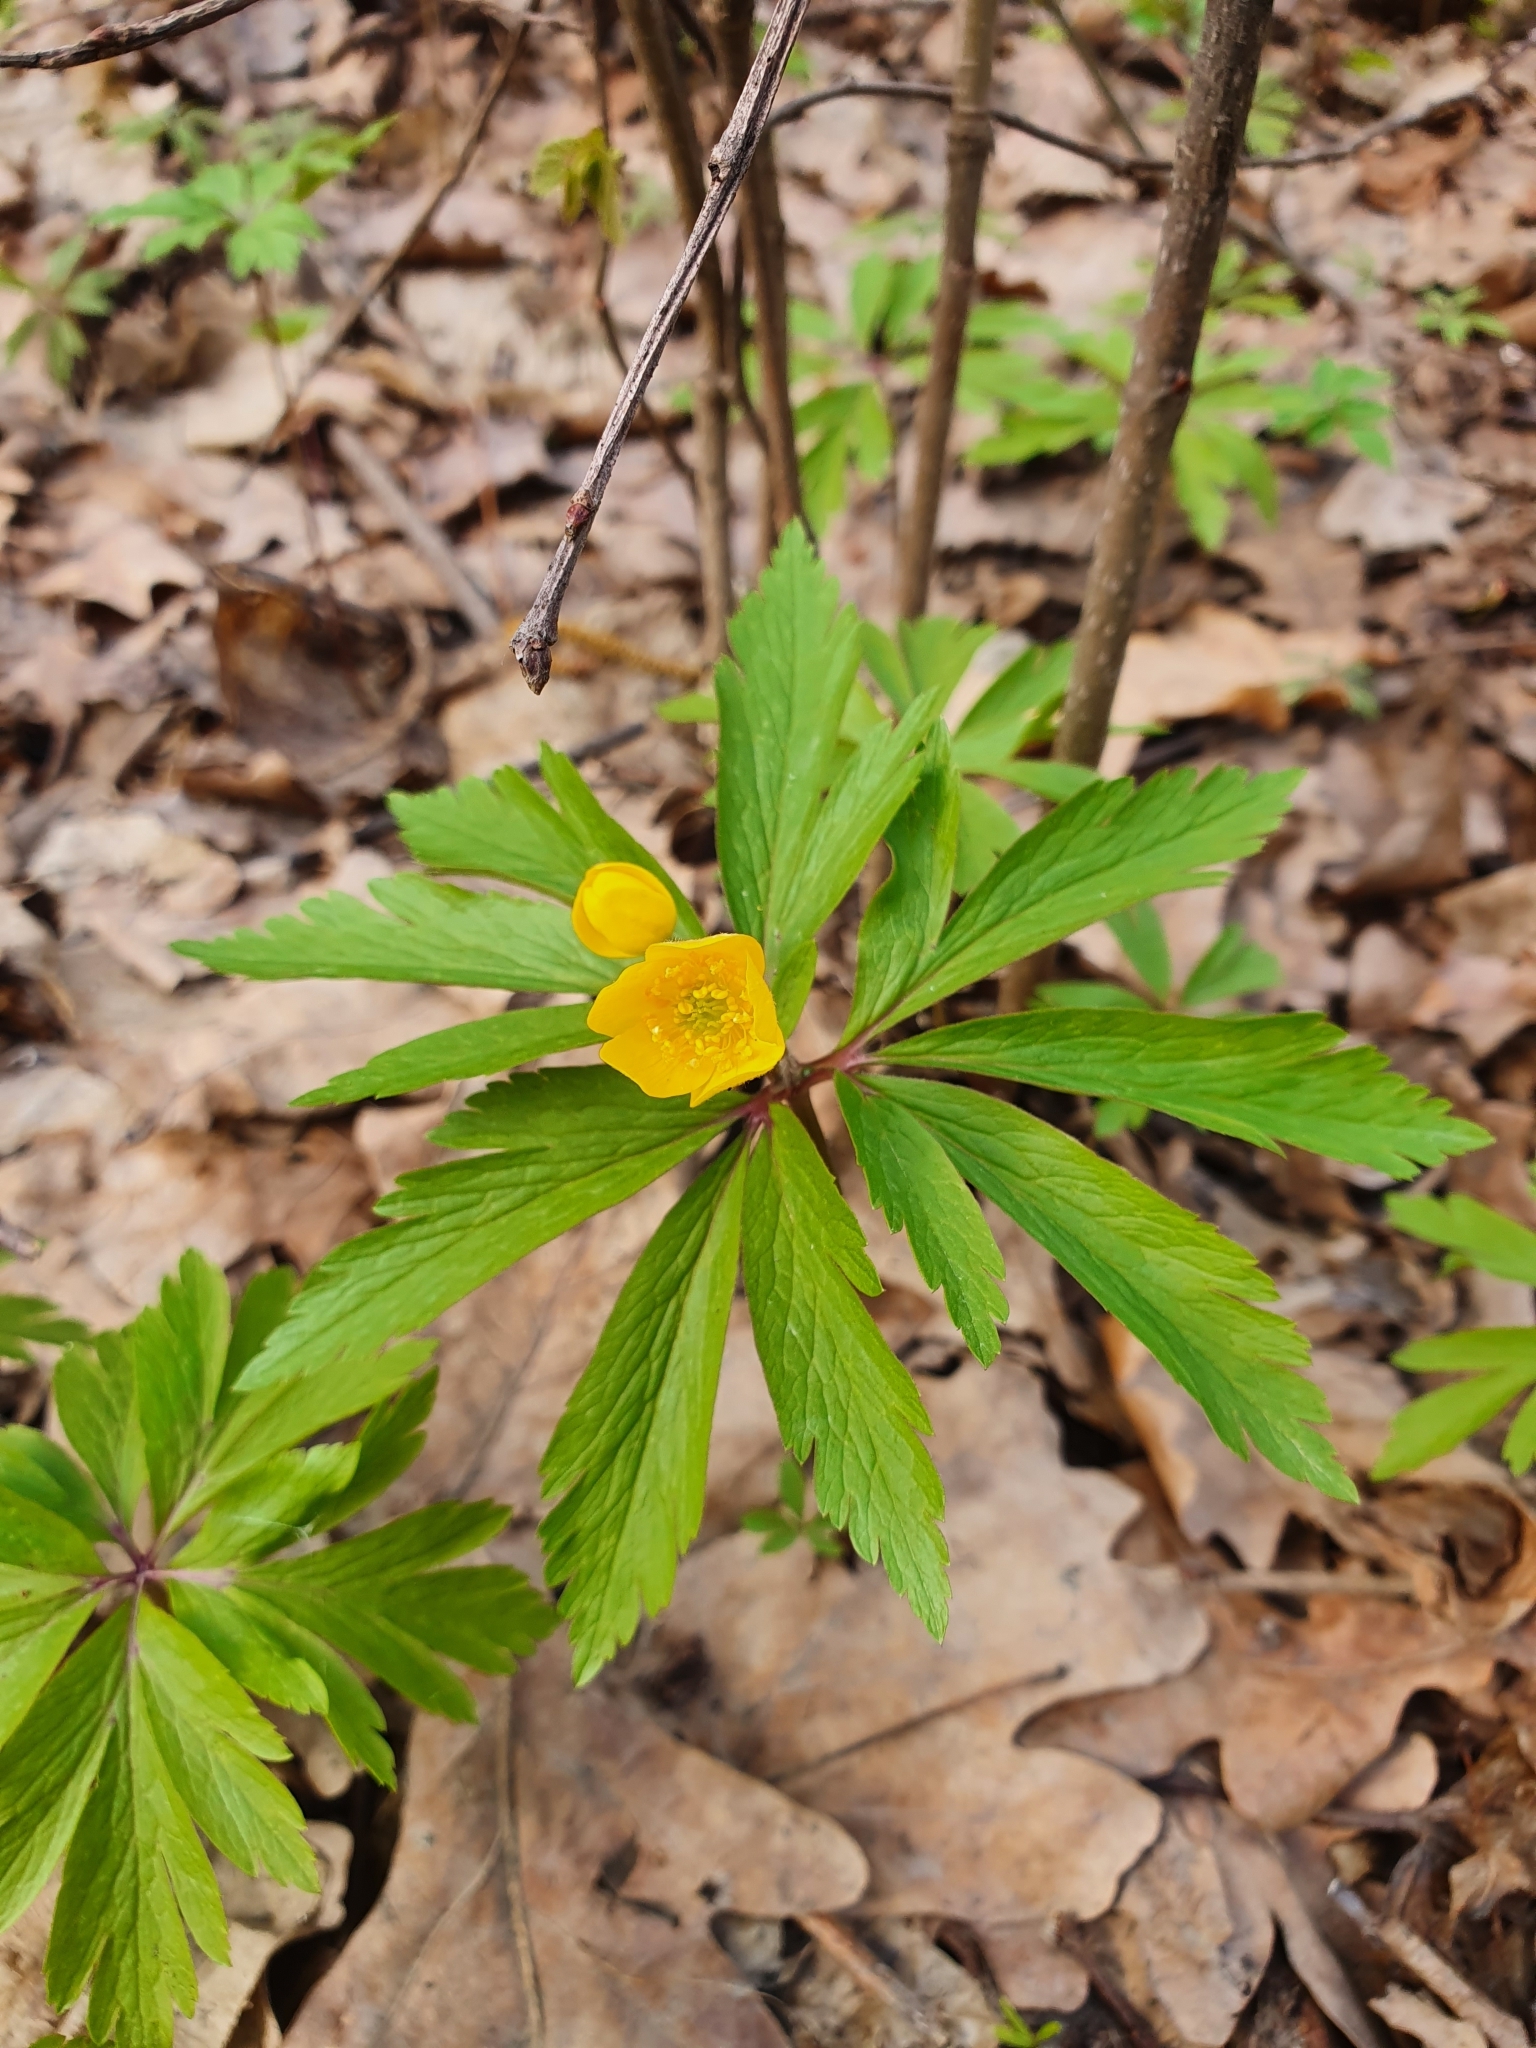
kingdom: Plantae
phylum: Tracheophyta
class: Magnoliopsida
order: Ranunculales
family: Ranunculaceae
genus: Anemone
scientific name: Anemone ranunculoides
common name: Yellow anemone
